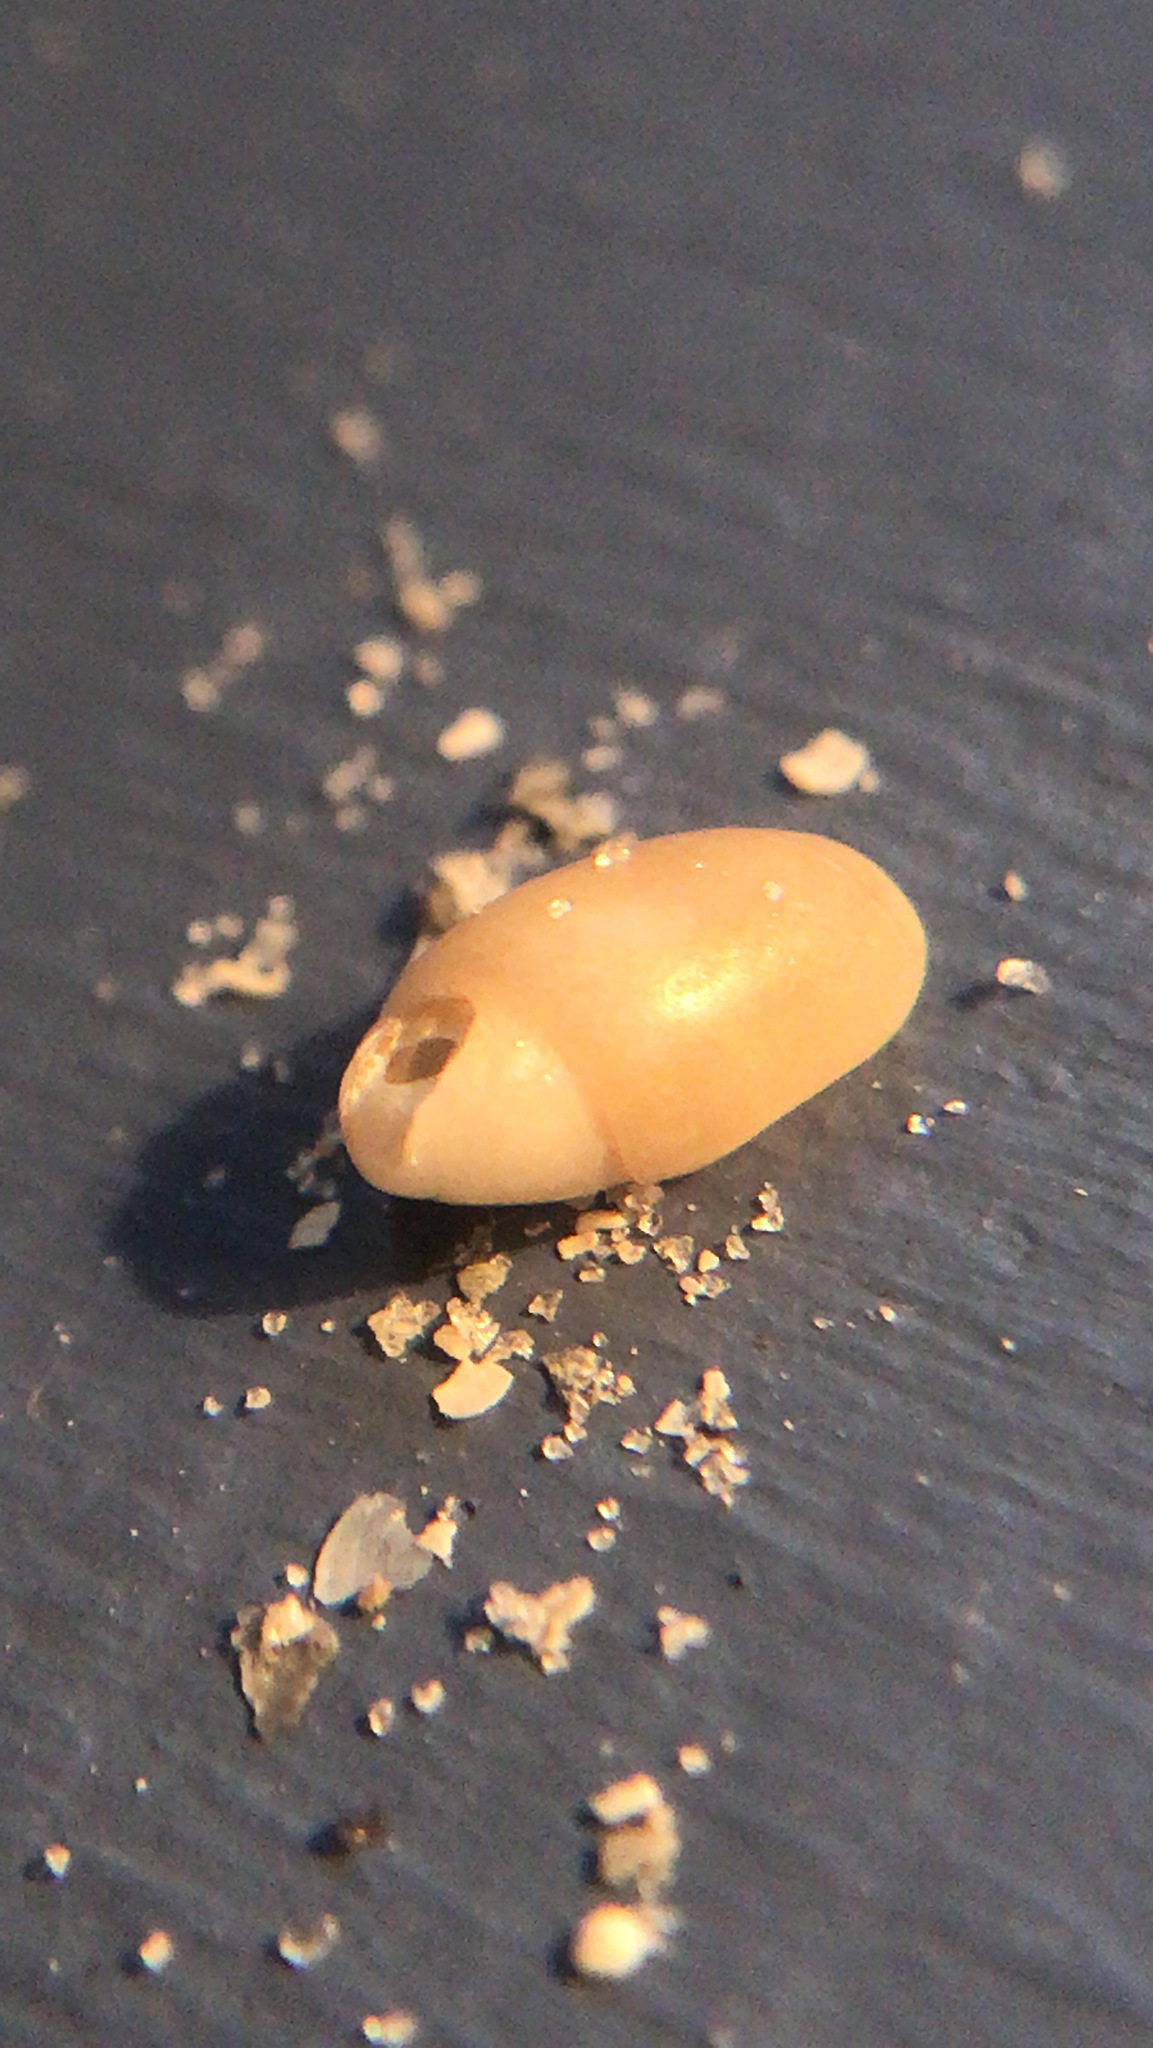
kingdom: Animalia
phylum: Mollusca
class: Gastropoda
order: Neogastropoda
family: Olividae
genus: Olivella
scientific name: Olivella
